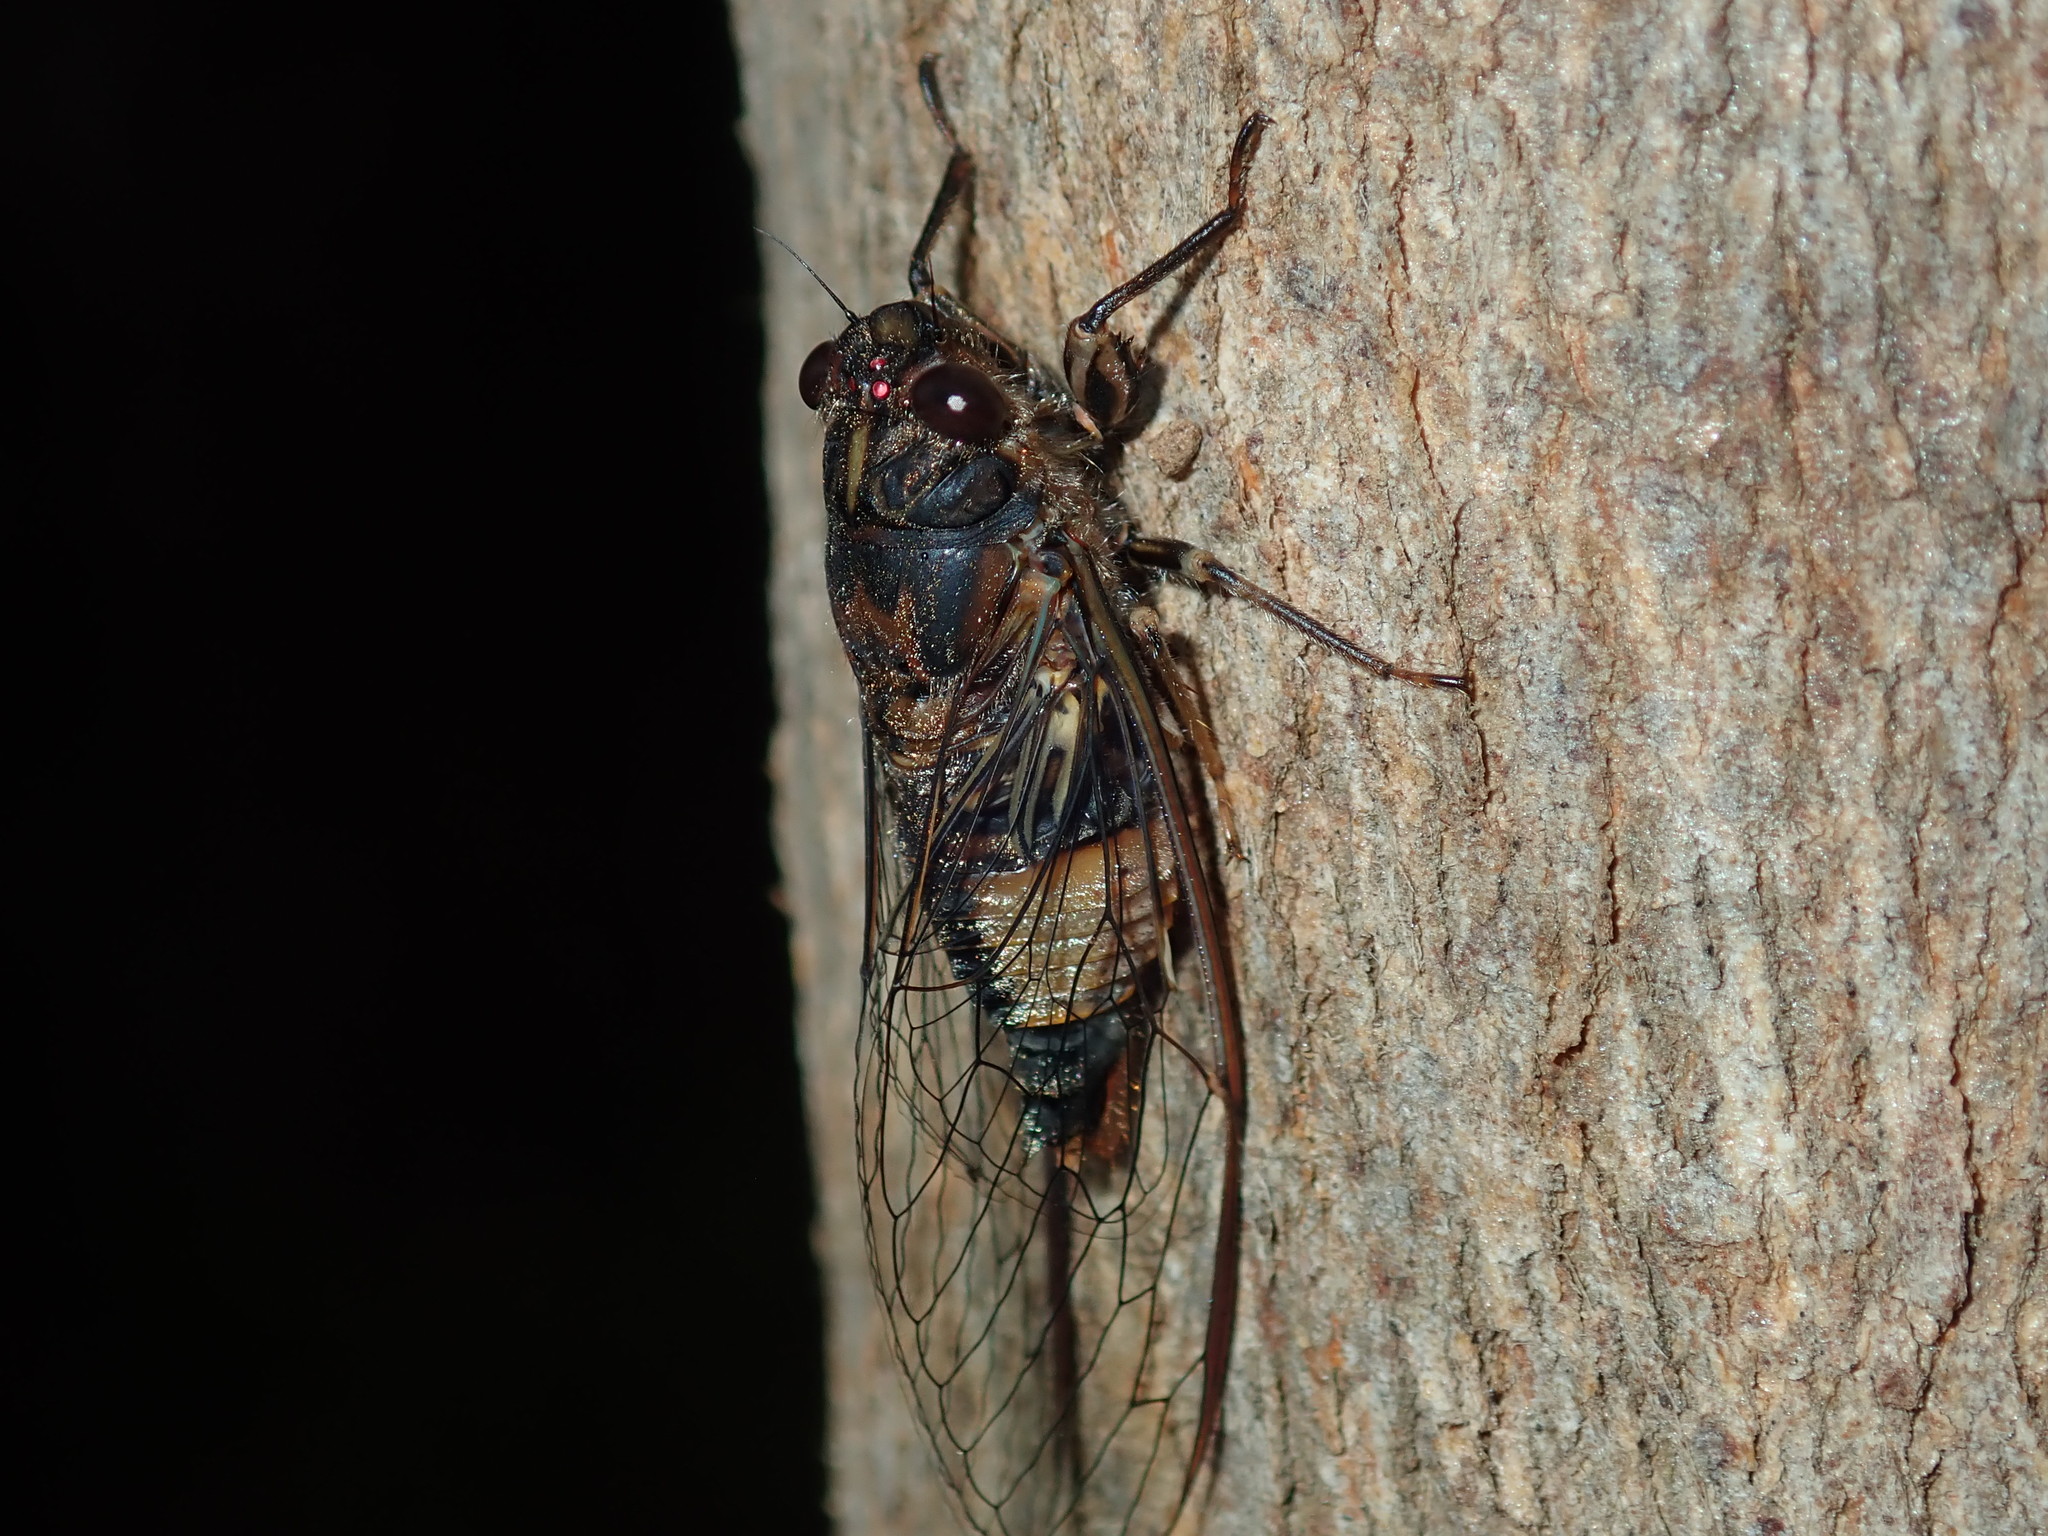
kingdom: Animalia
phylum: Arthropoda
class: Insecta
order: Hemiptera
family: Cicadidae
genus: Yoyetta
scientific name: Yoyetta repetens
